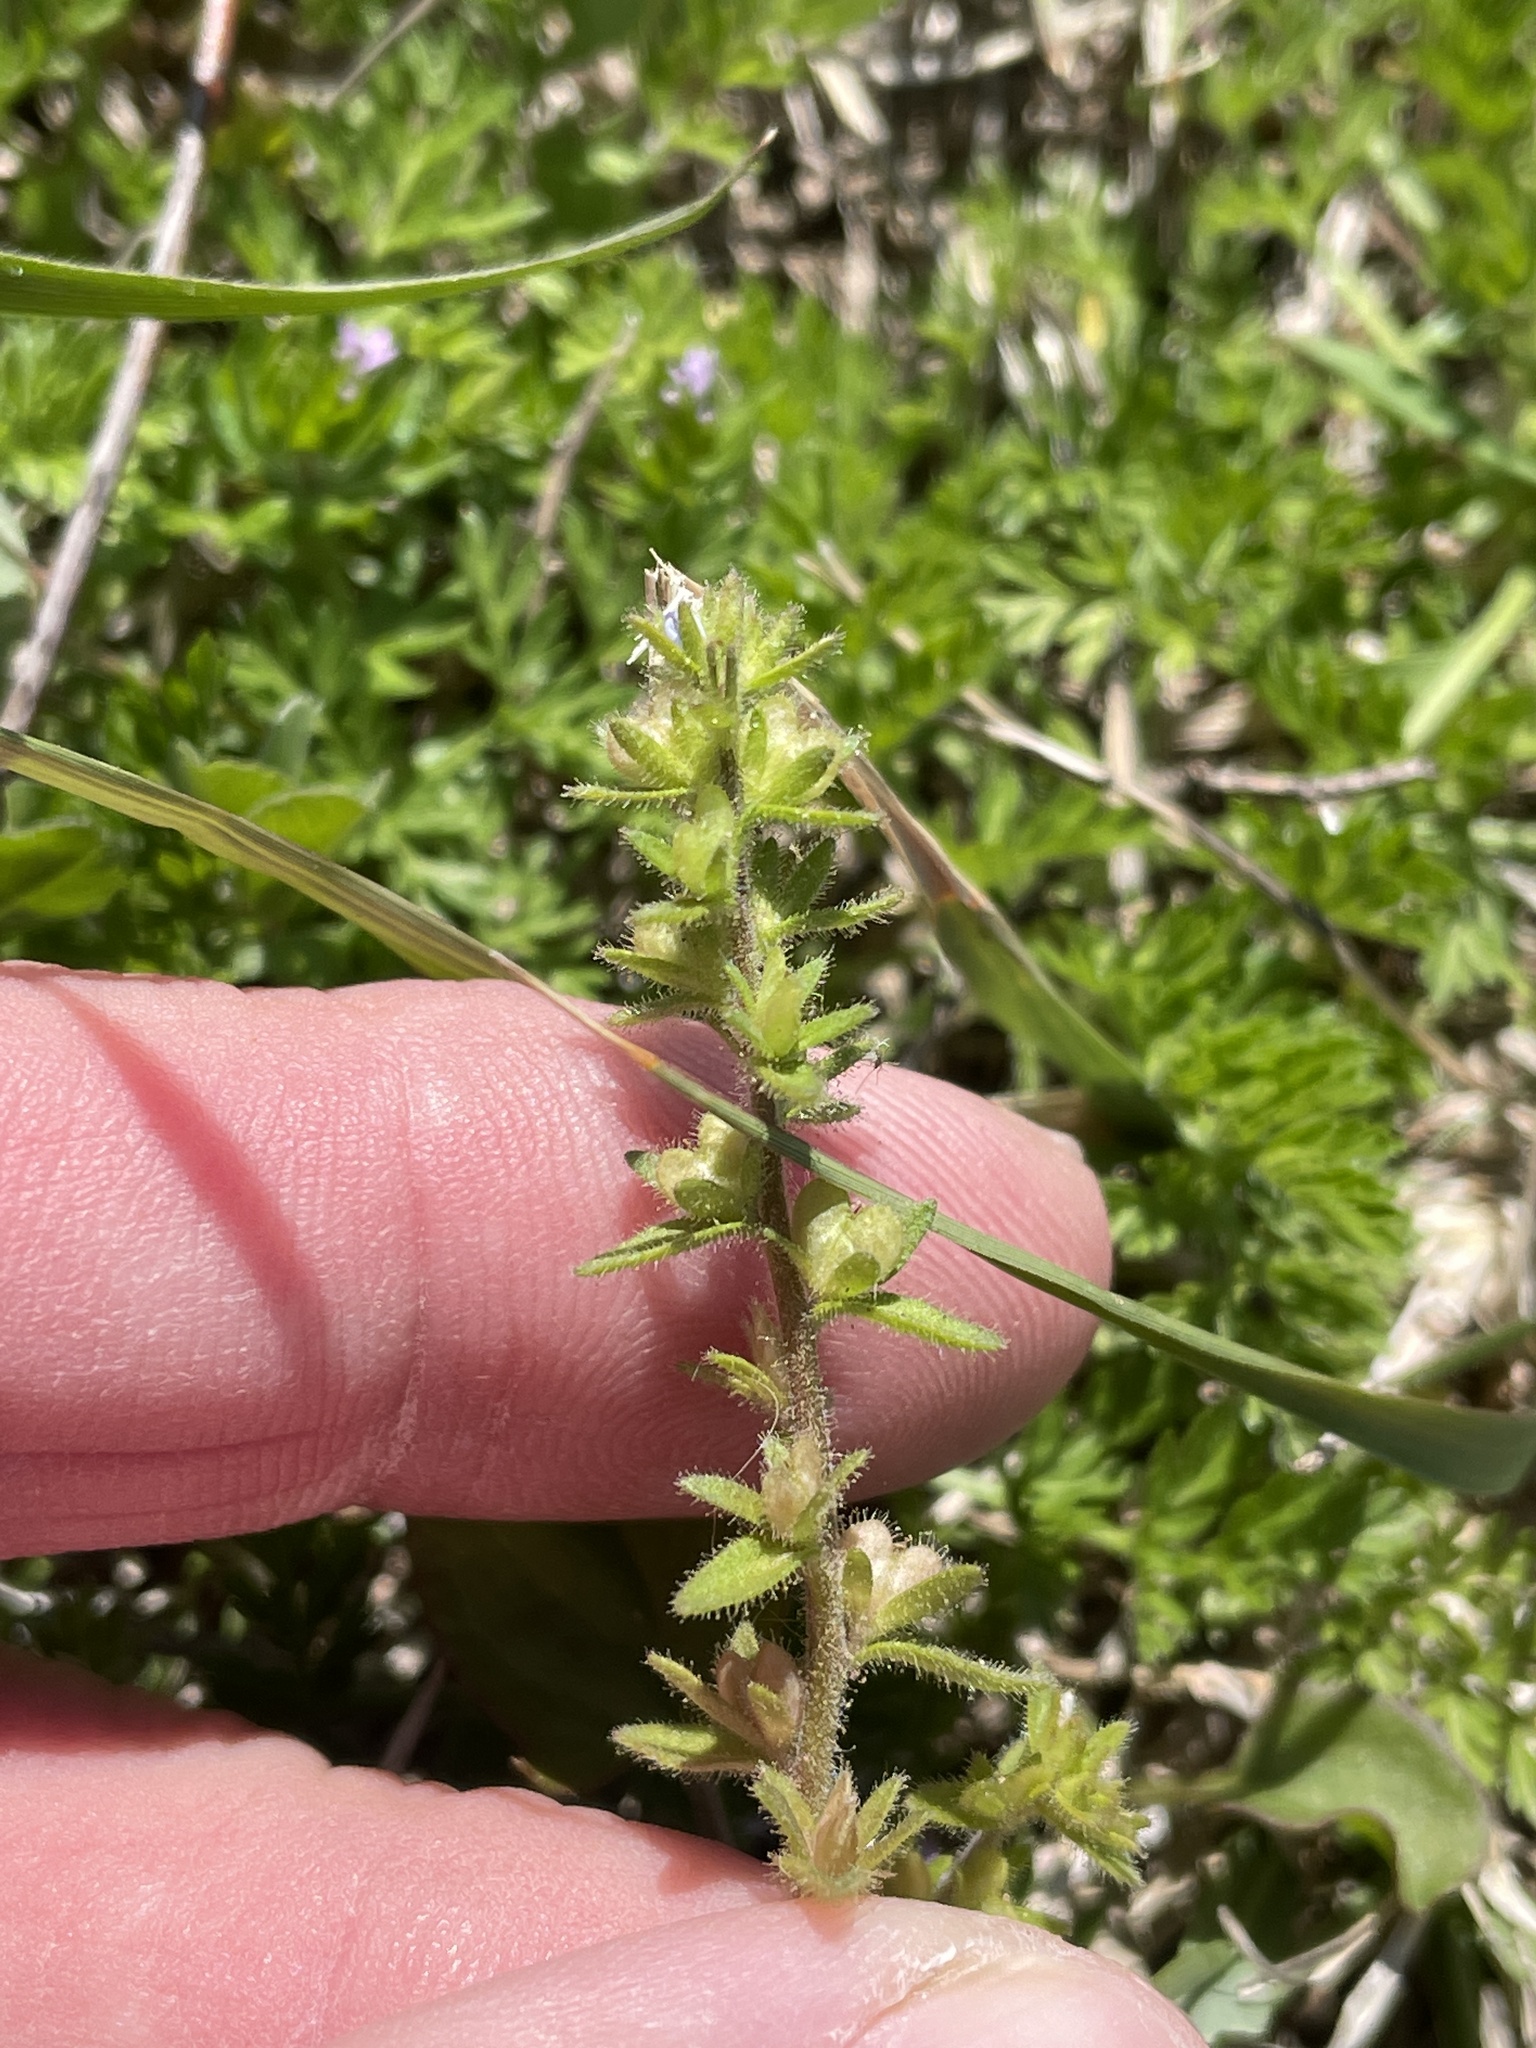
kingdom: Plantae
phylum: Tracheophyta
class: Magnoliopsida
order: Lamiales
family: Plantaginaceae
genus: Veronica
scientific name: Veronica arvensis
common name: Corn speedwell
